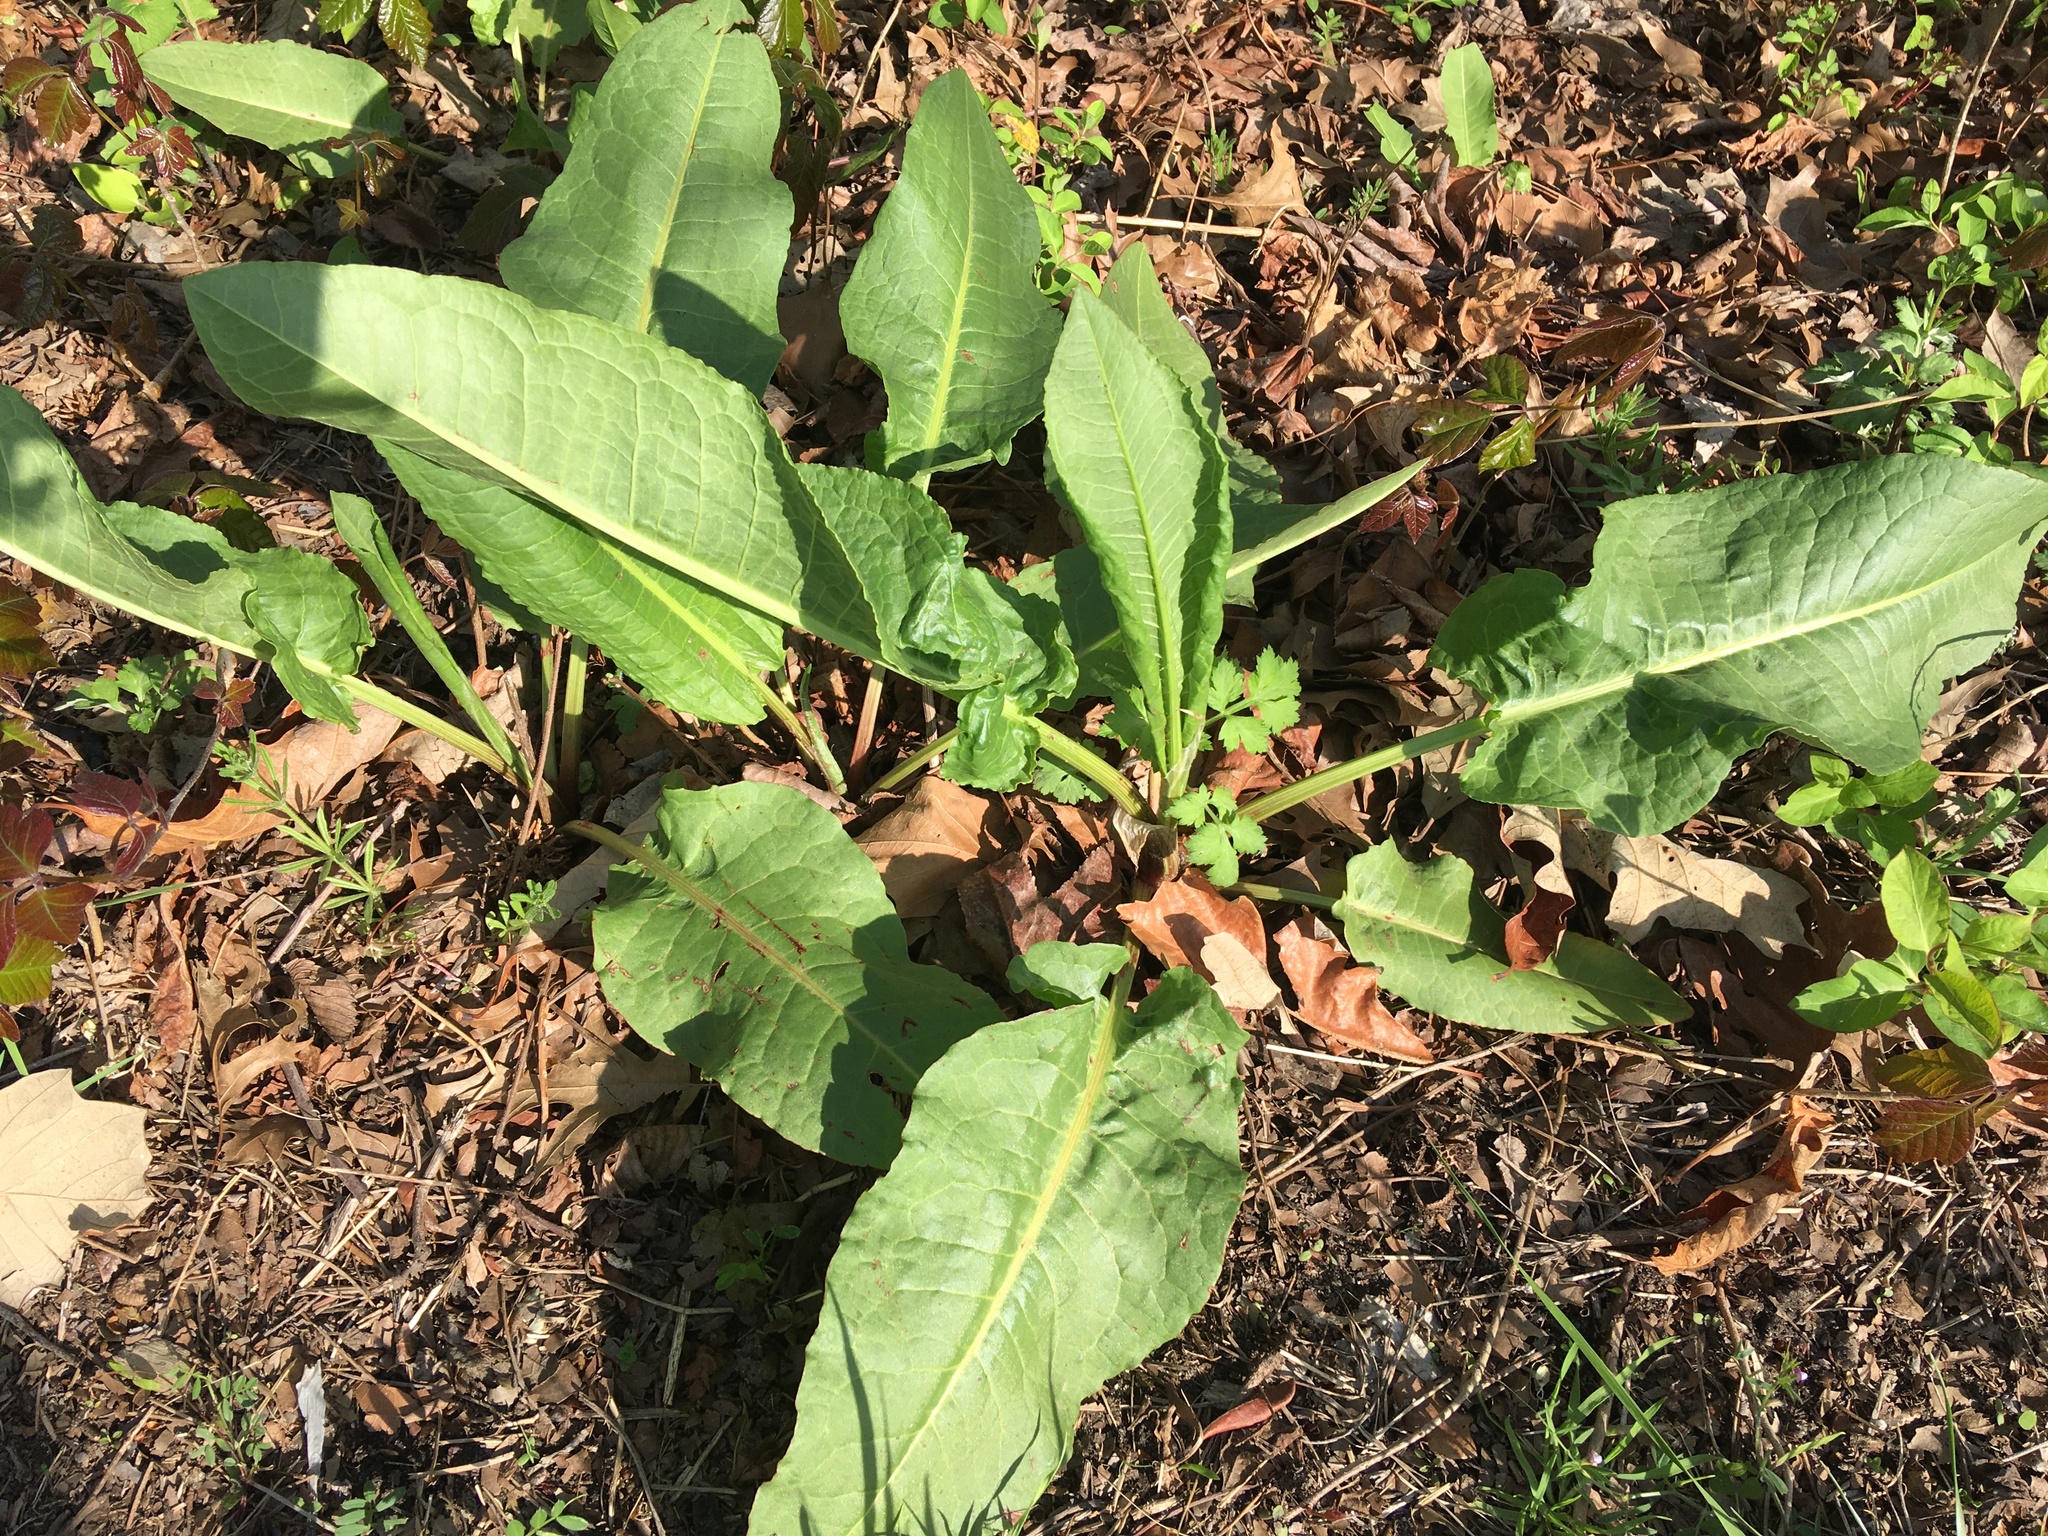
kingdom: Plantae
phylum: Tracheophyta
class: Magnoliopsida
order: Caryophyllales
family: Polygonaceae
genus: Rumex
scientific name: Rumex obtusifolius
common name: Bitter dock
